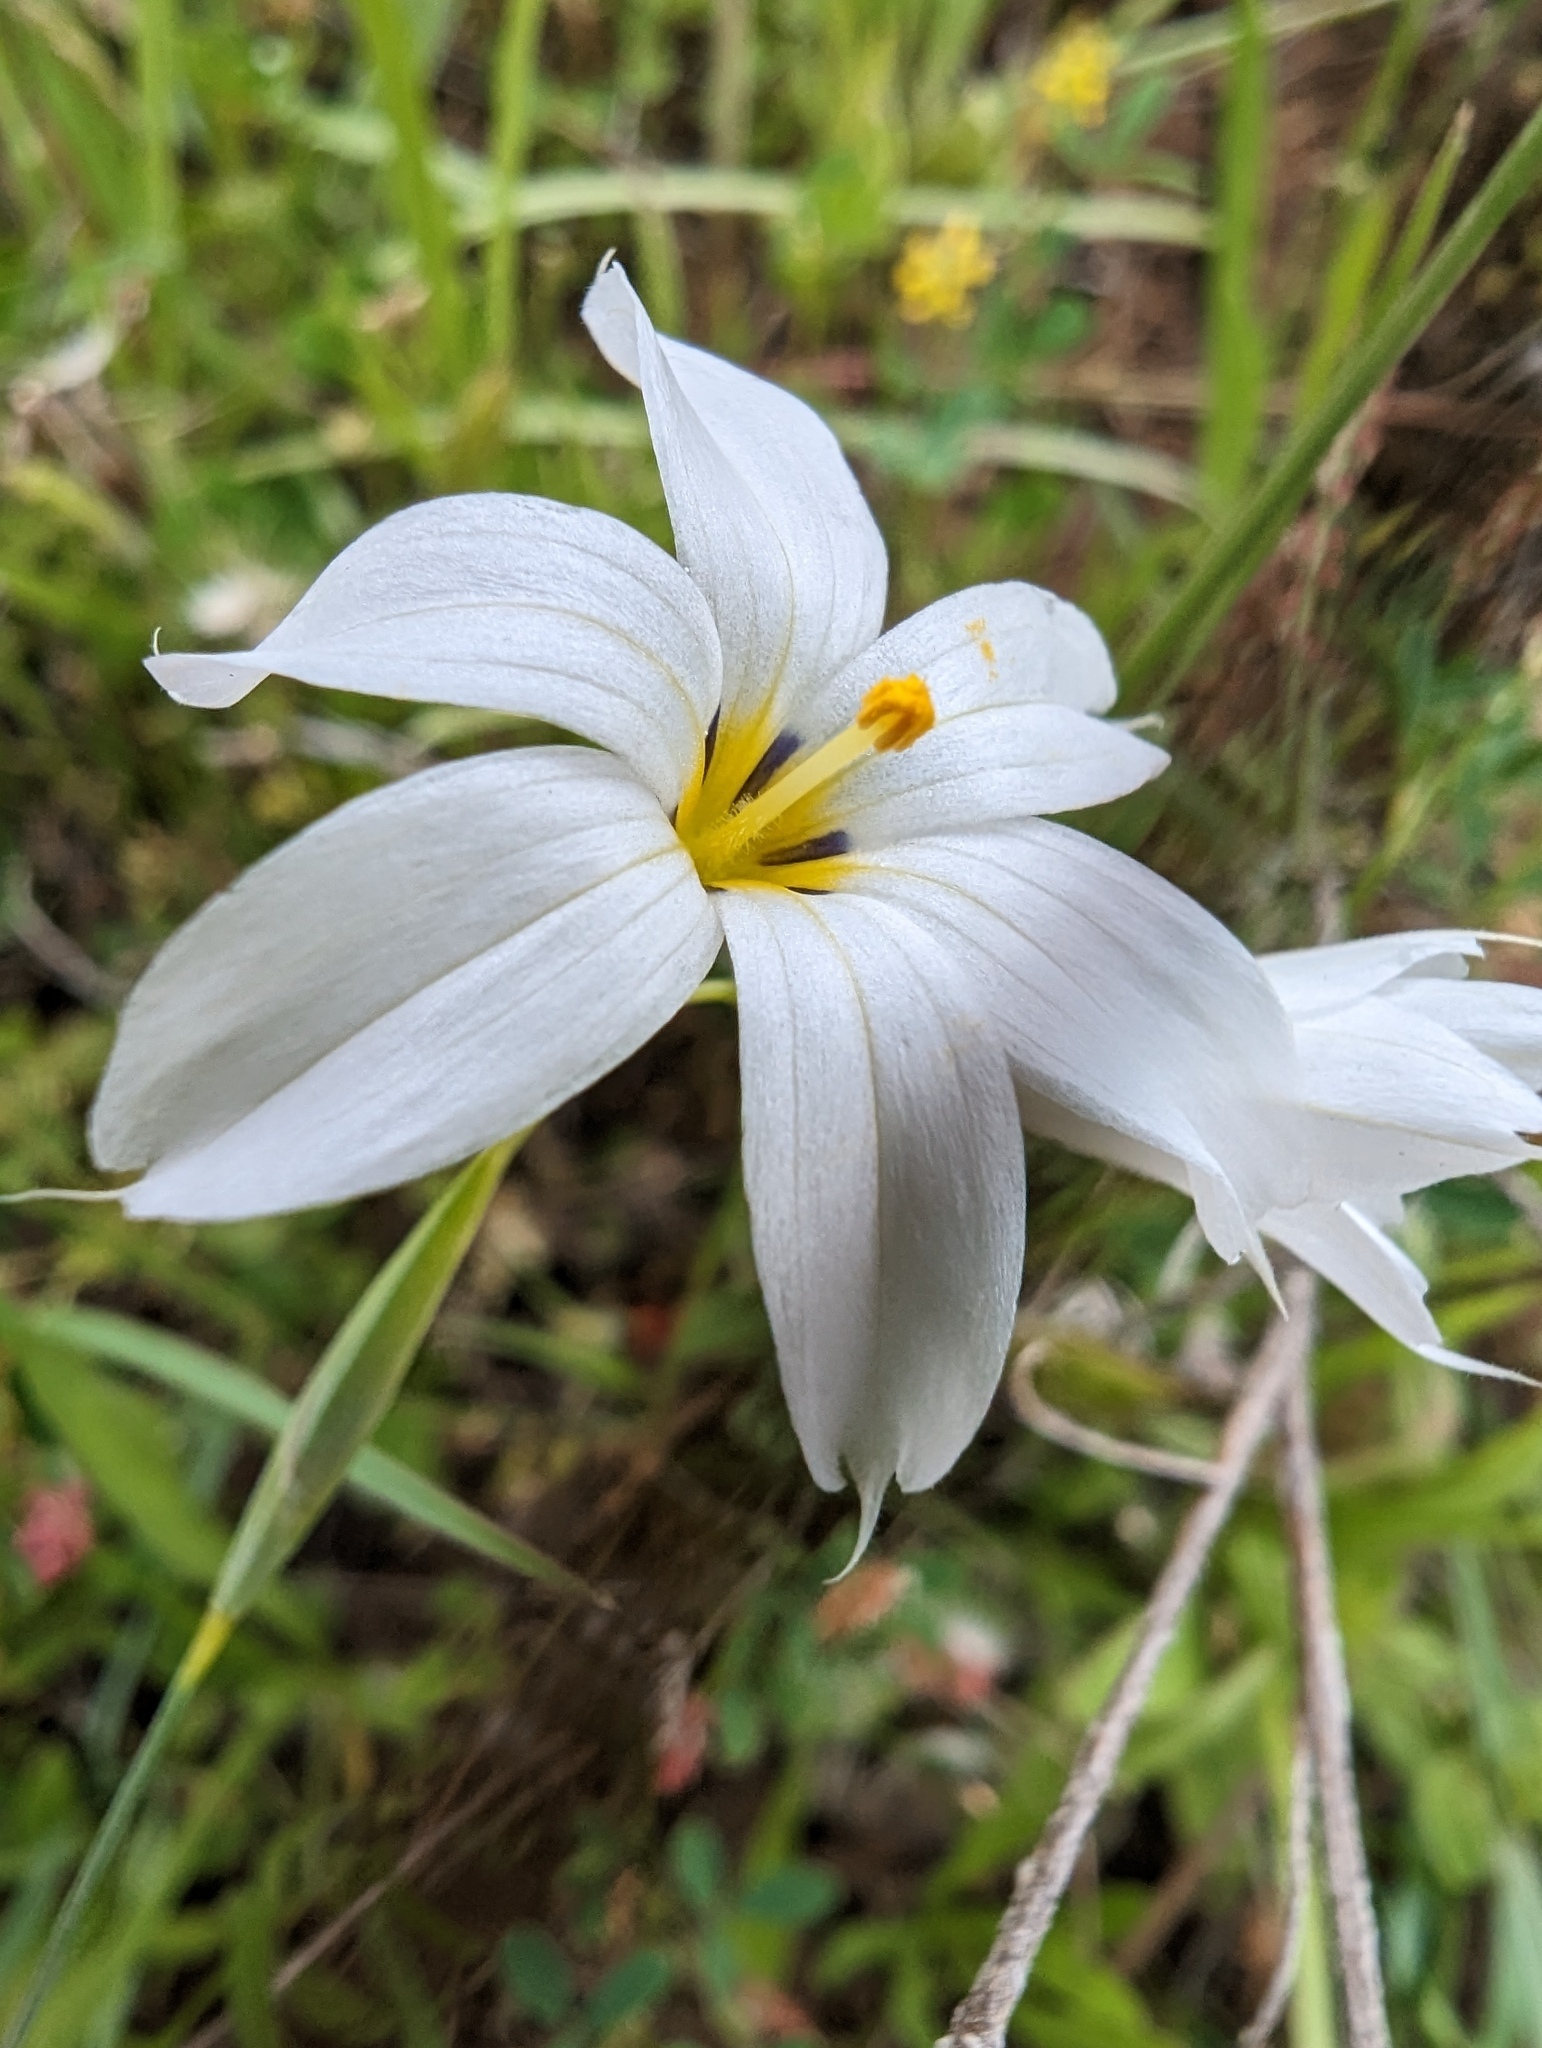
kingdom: Plantae
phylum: Tracheophyta
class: Liliopsida
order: Asparagales
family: Iridaceae
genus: Sisyrinchium
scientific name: Sisyrinchium bellum
